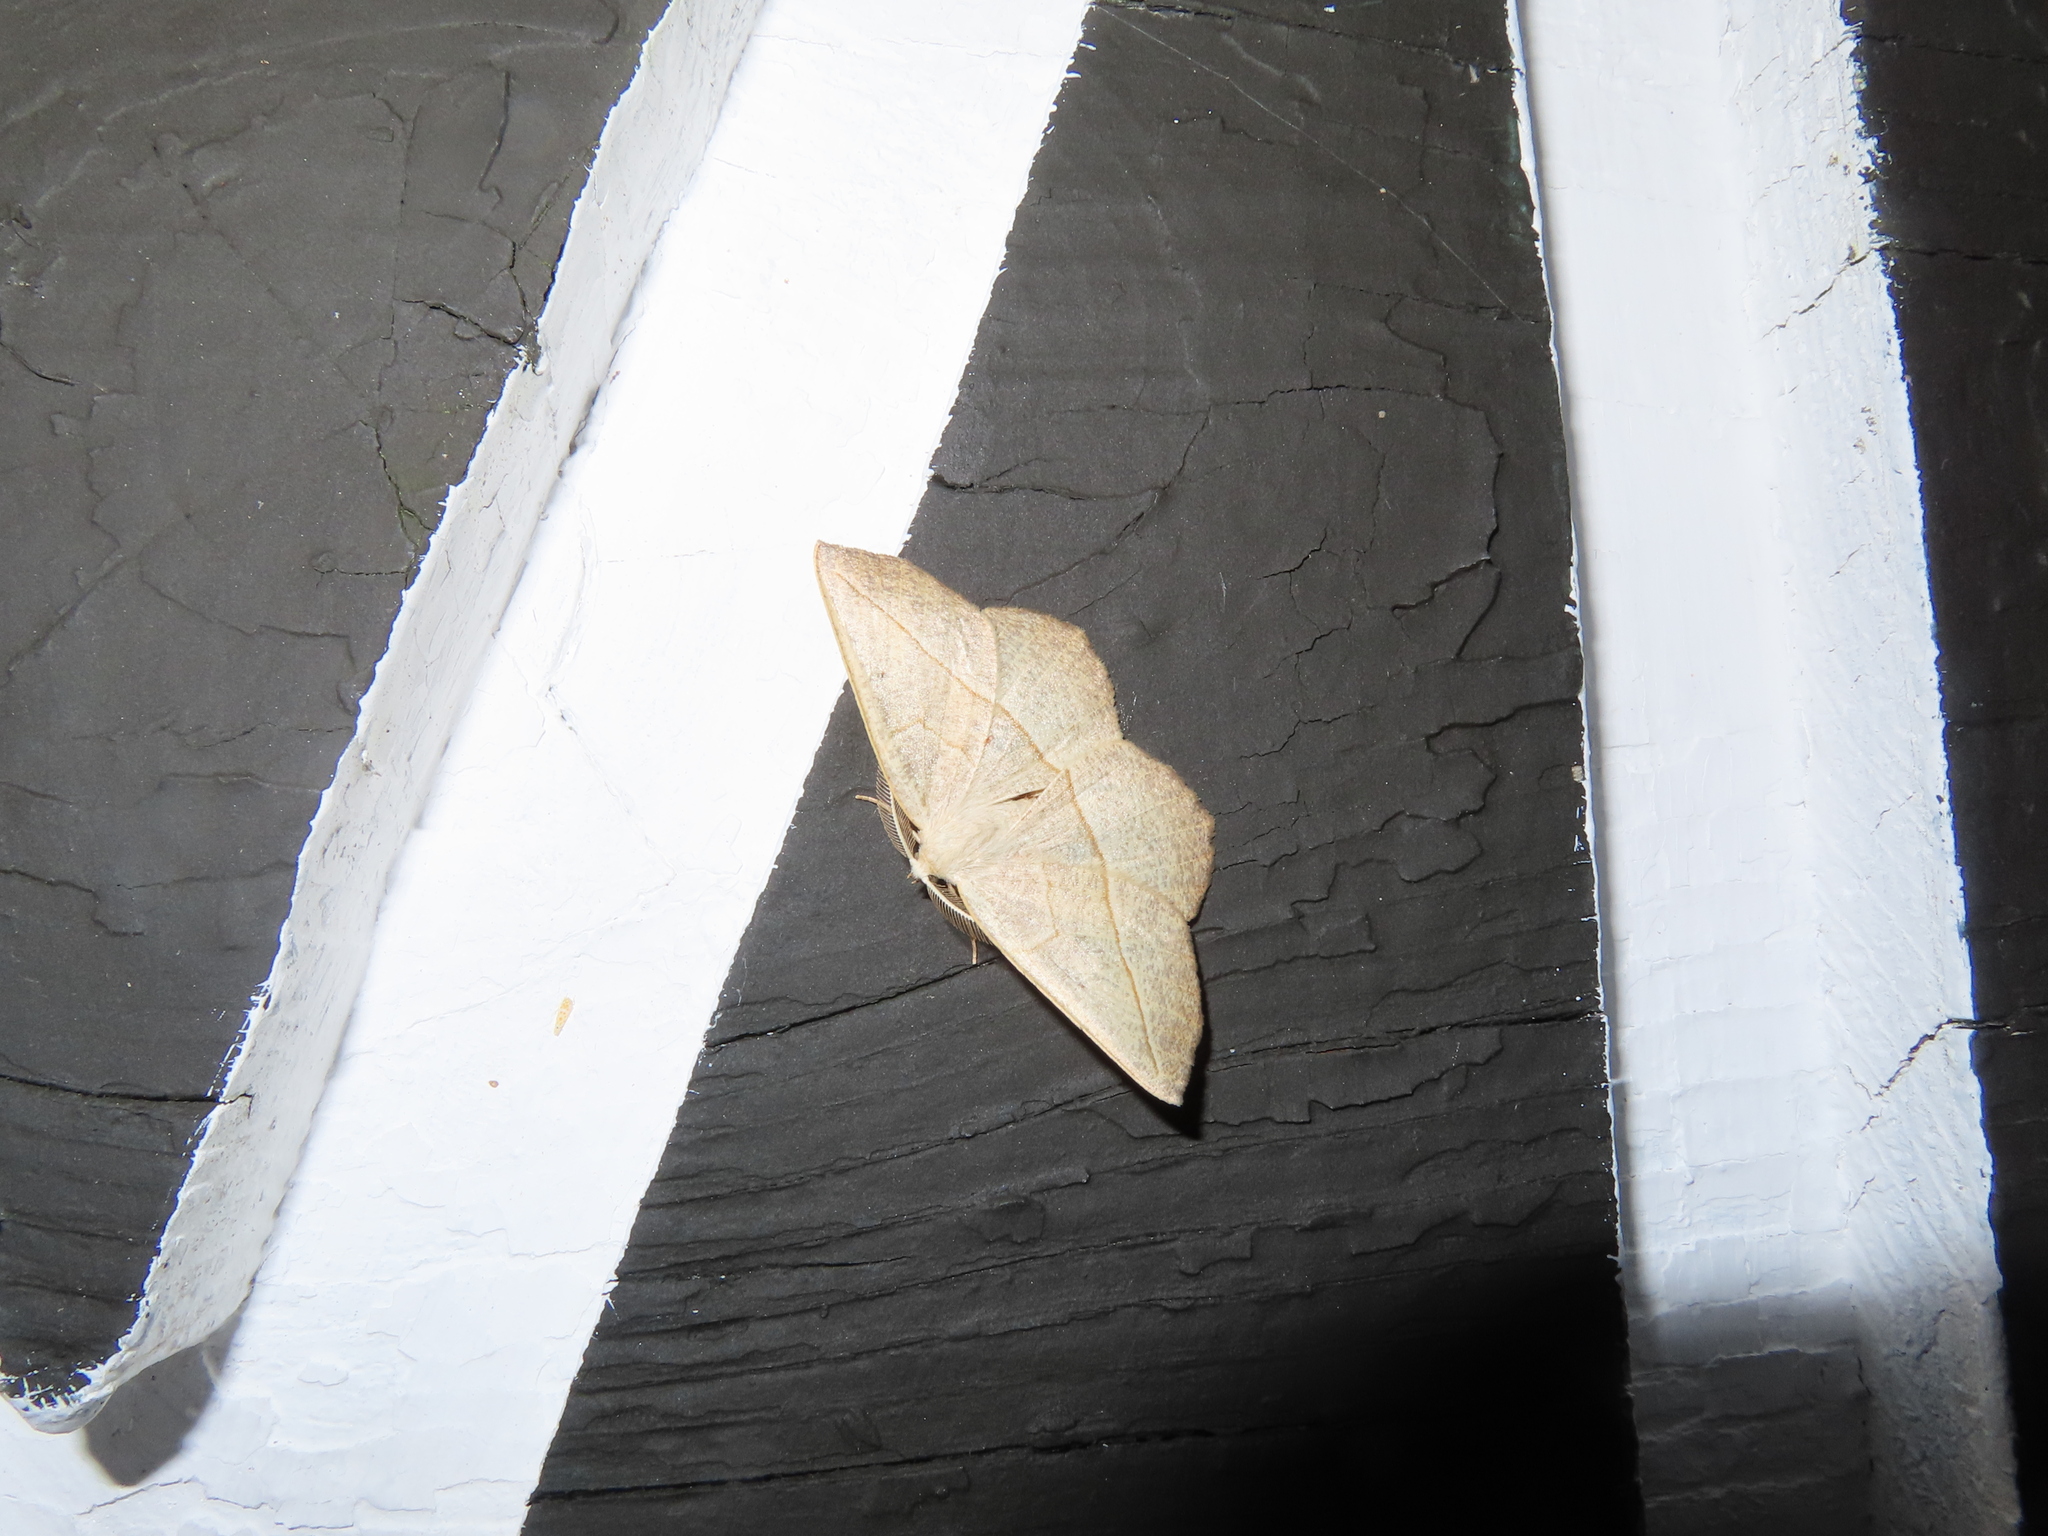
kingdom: Animalia
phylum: Arthropoda
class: Insecta
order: Lepidoptera
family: Geometridae
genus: Eusarca
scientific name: Eusarca confusaria
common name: Confused eusarca
